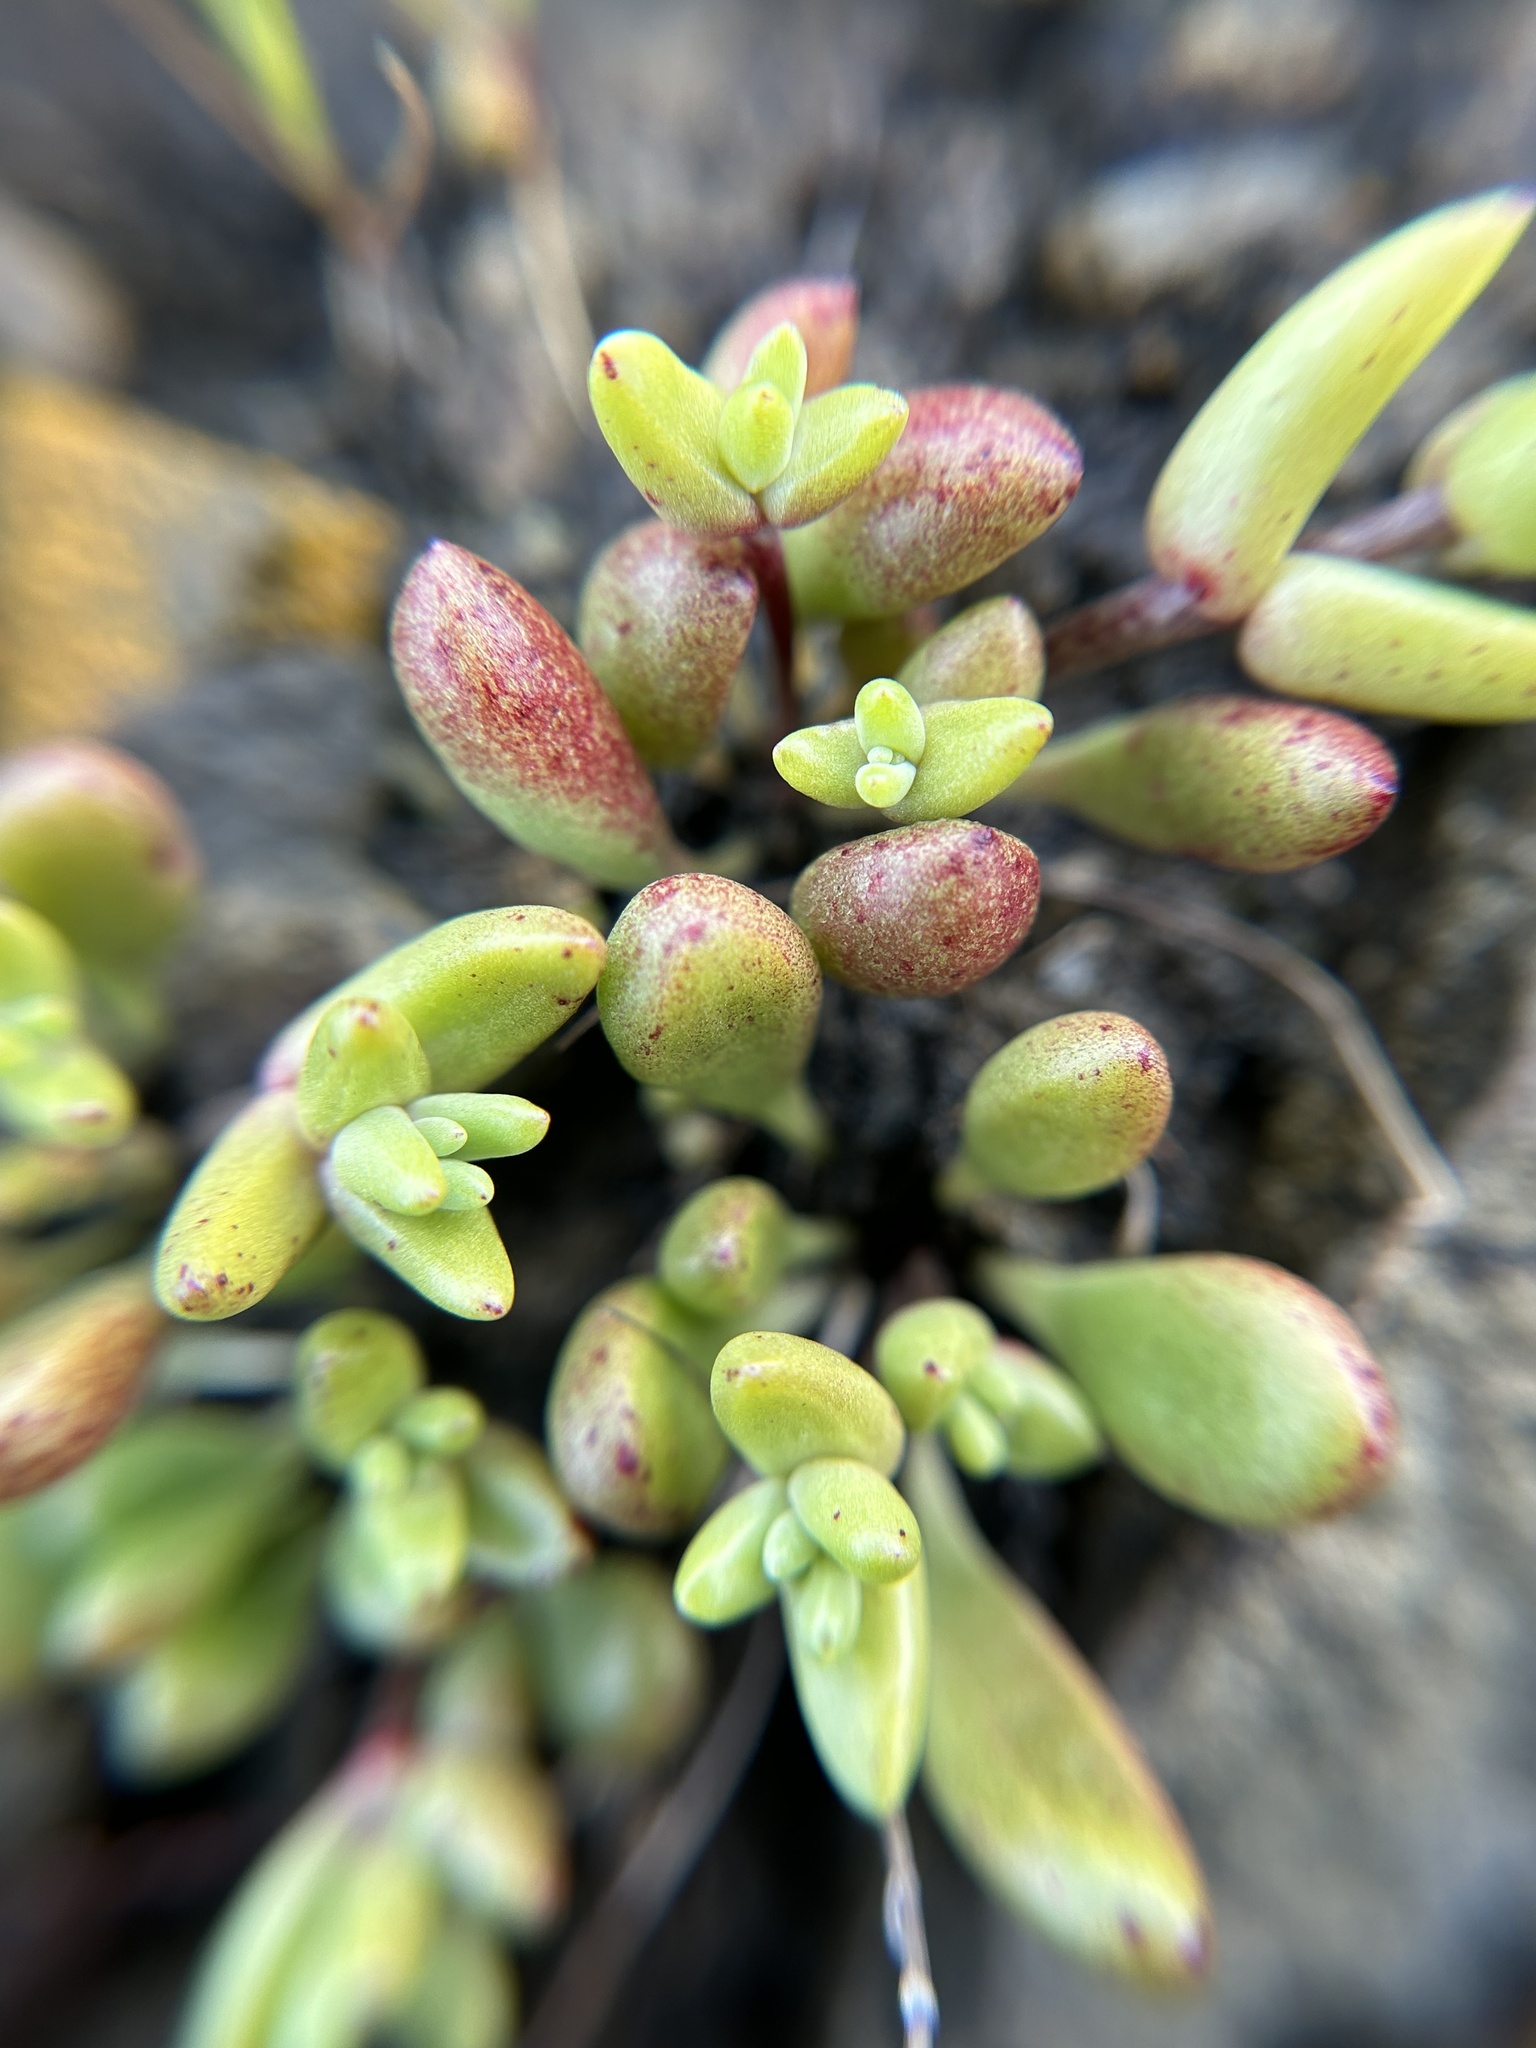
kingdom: Plantae
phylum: Tracheophyta
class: Magnoliopsida
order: Saxifragales
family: Crassulaceae
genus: Dudleya
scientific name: Dudleya blochmaniae
